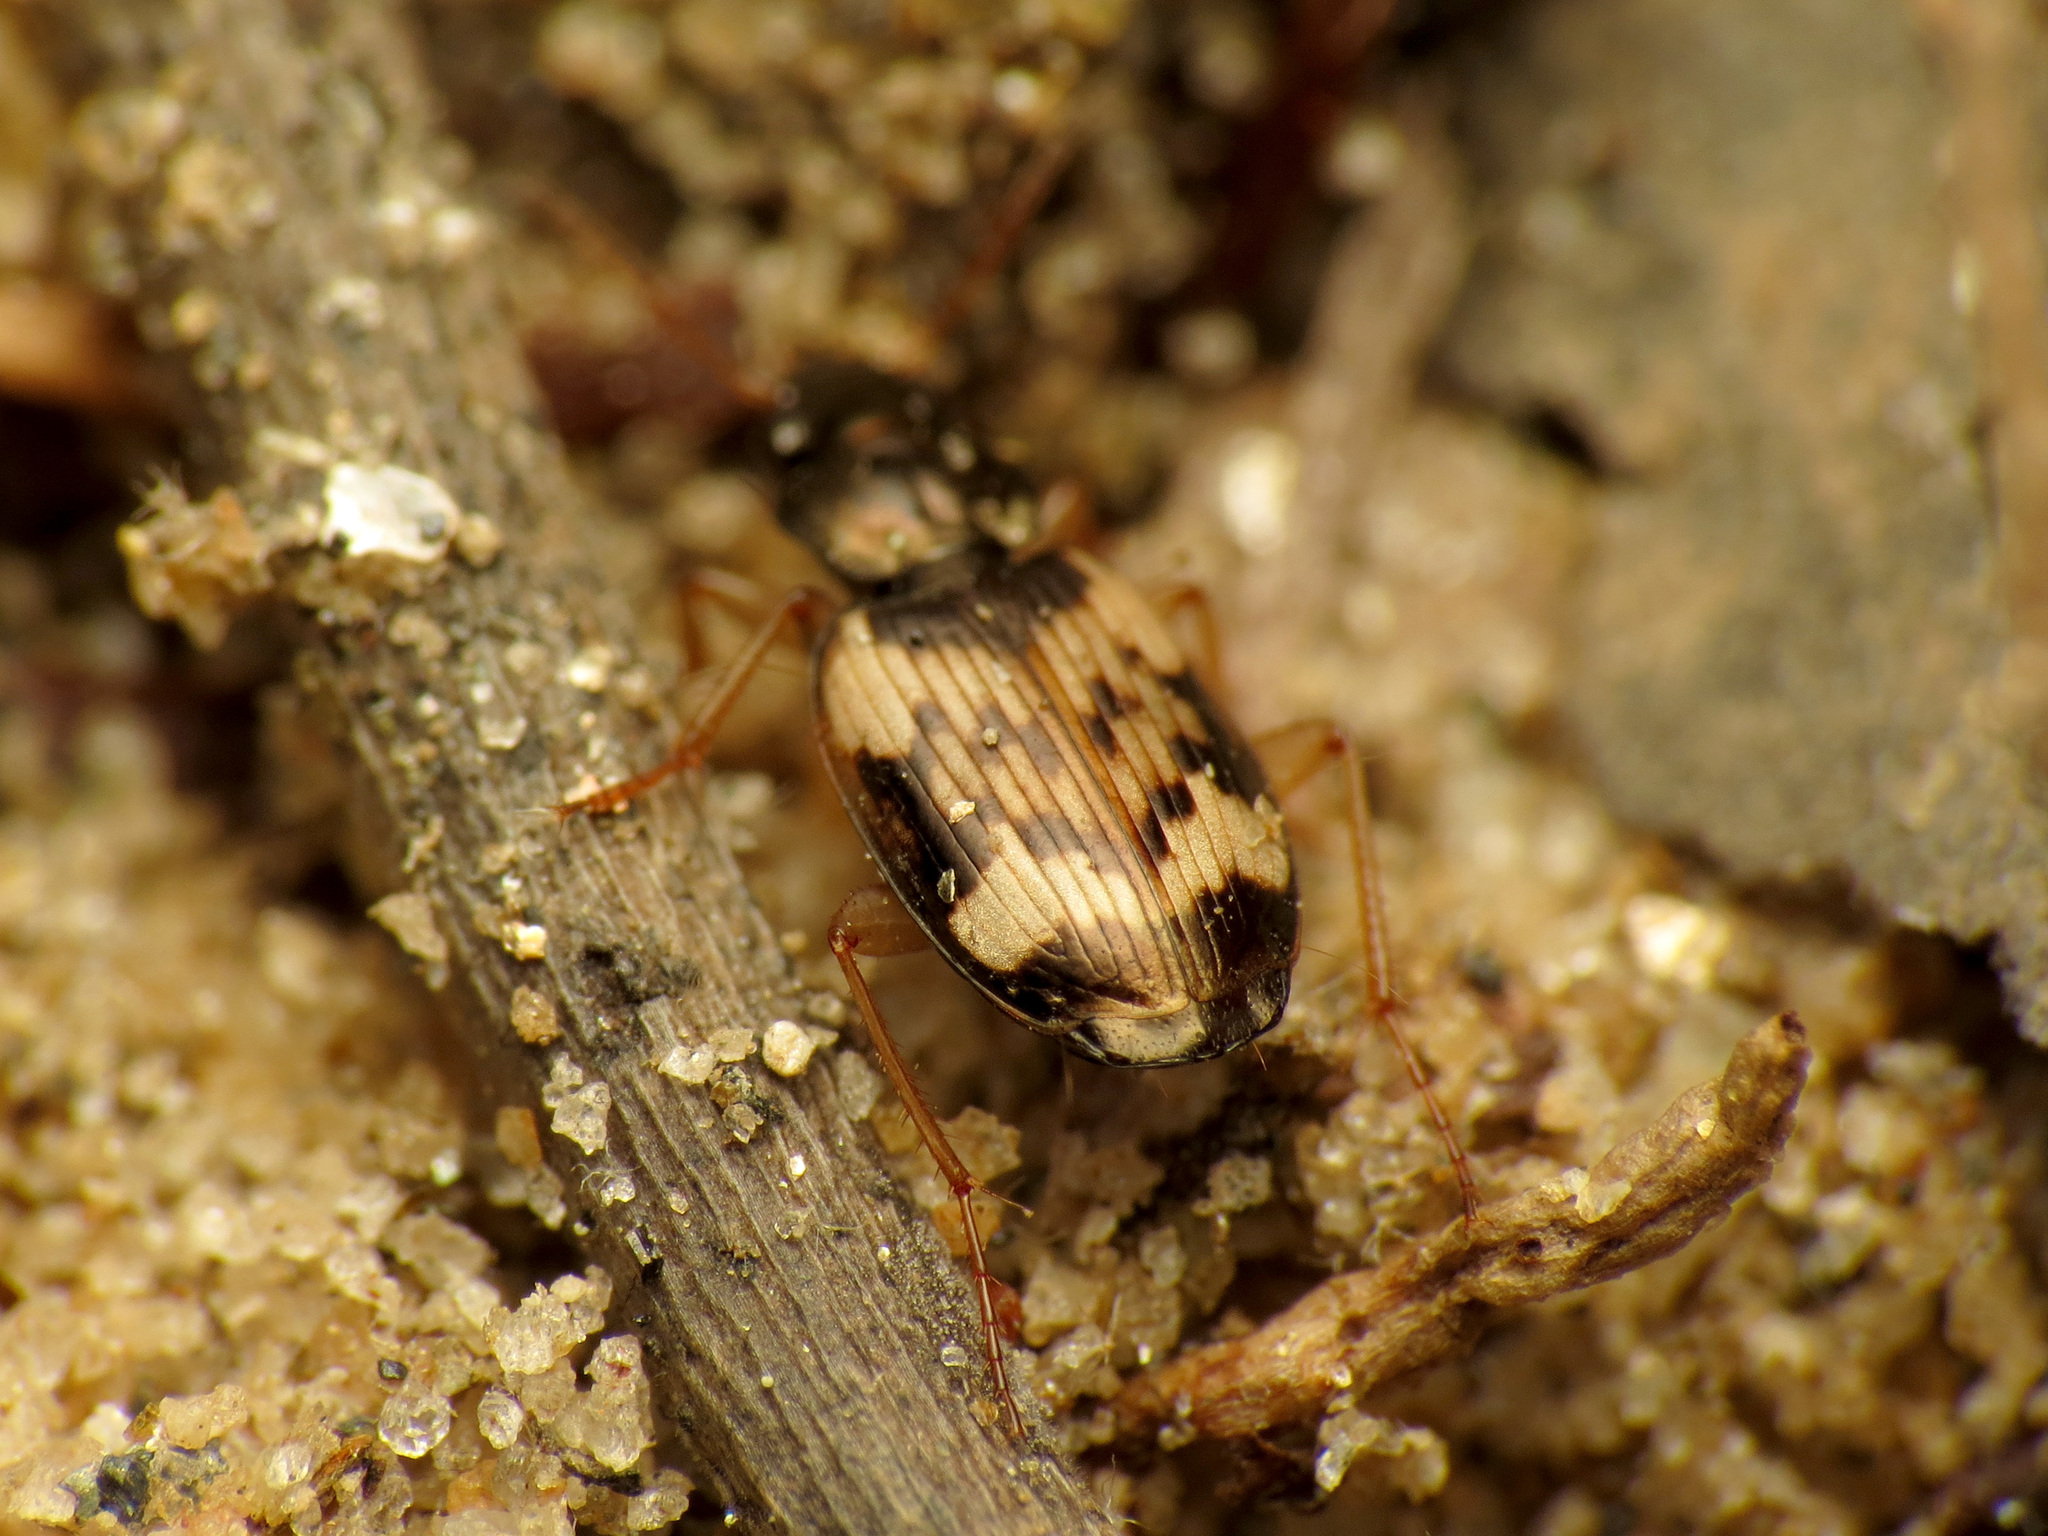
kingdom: Animalia
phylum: Arthropoda
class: Insecta
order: Coleoptera
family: Carabidae
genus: Tetragonoderus
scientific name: Tetragonoderus fasciatus
